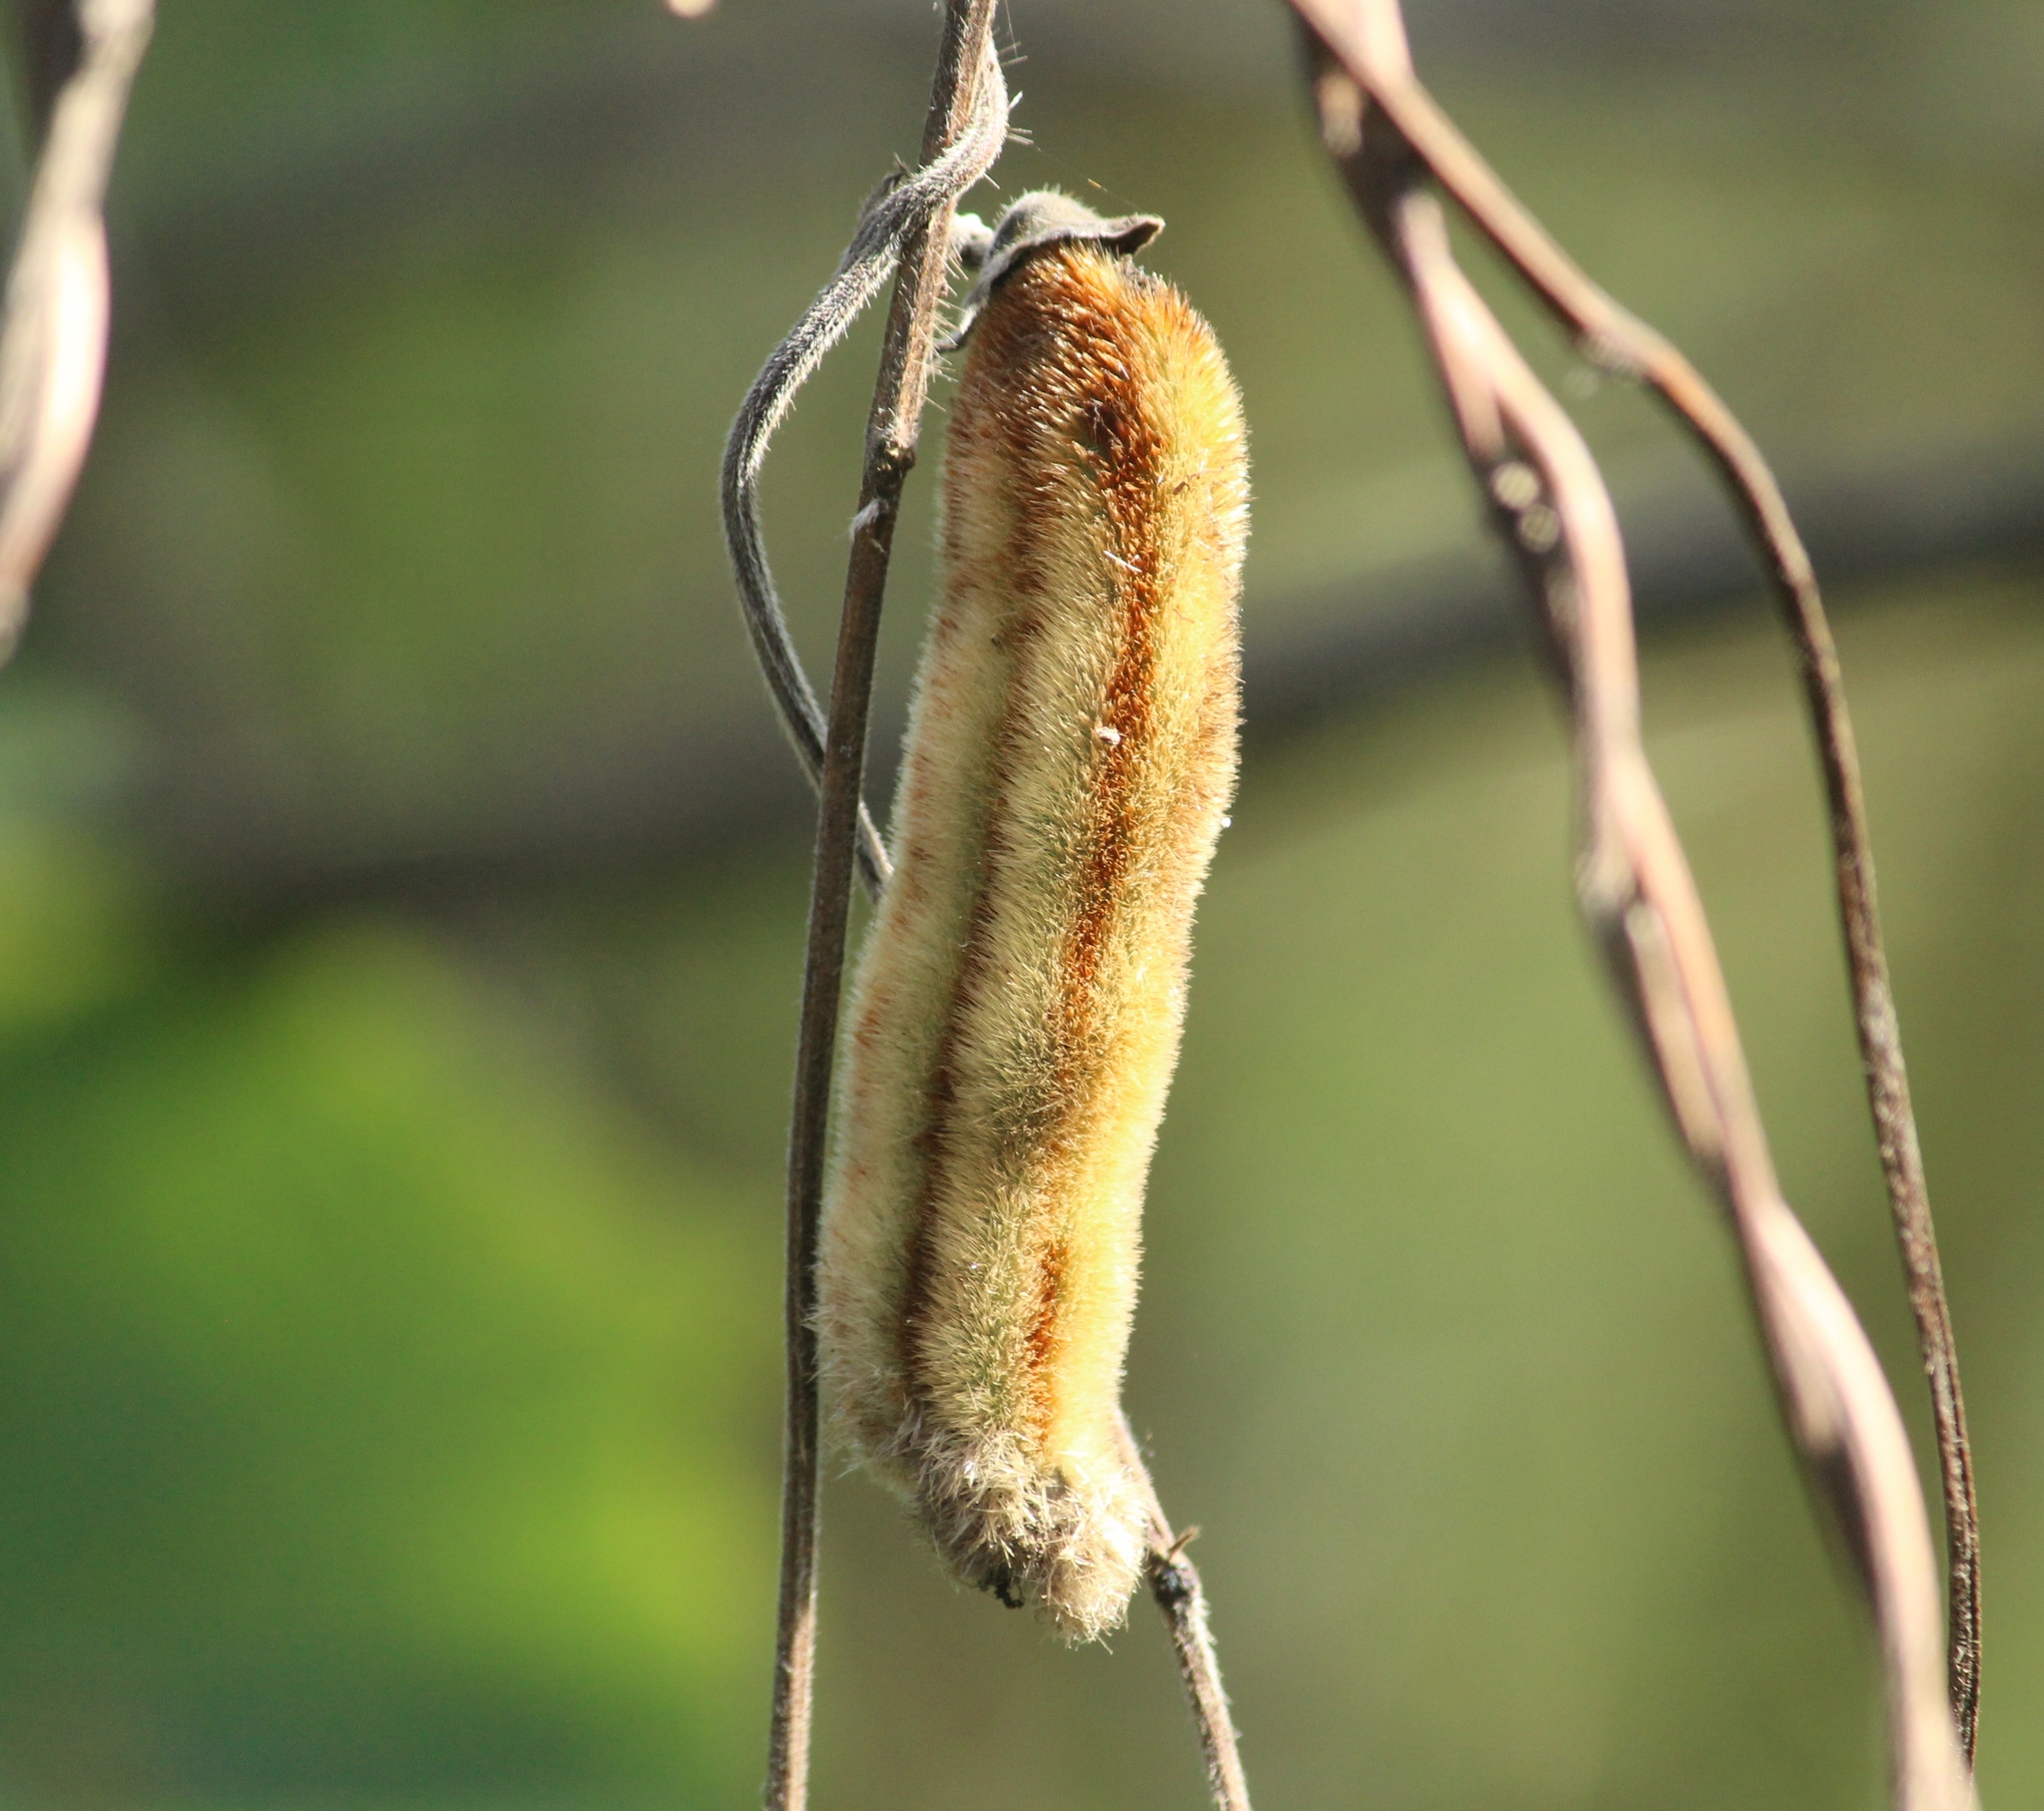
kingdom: Plantae
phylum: Tracheophyta
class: Magnoliopsida
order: Fabales
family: Fabaceae
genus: Mucuna
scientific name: Mucuna pruriens
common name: Cow-itch
